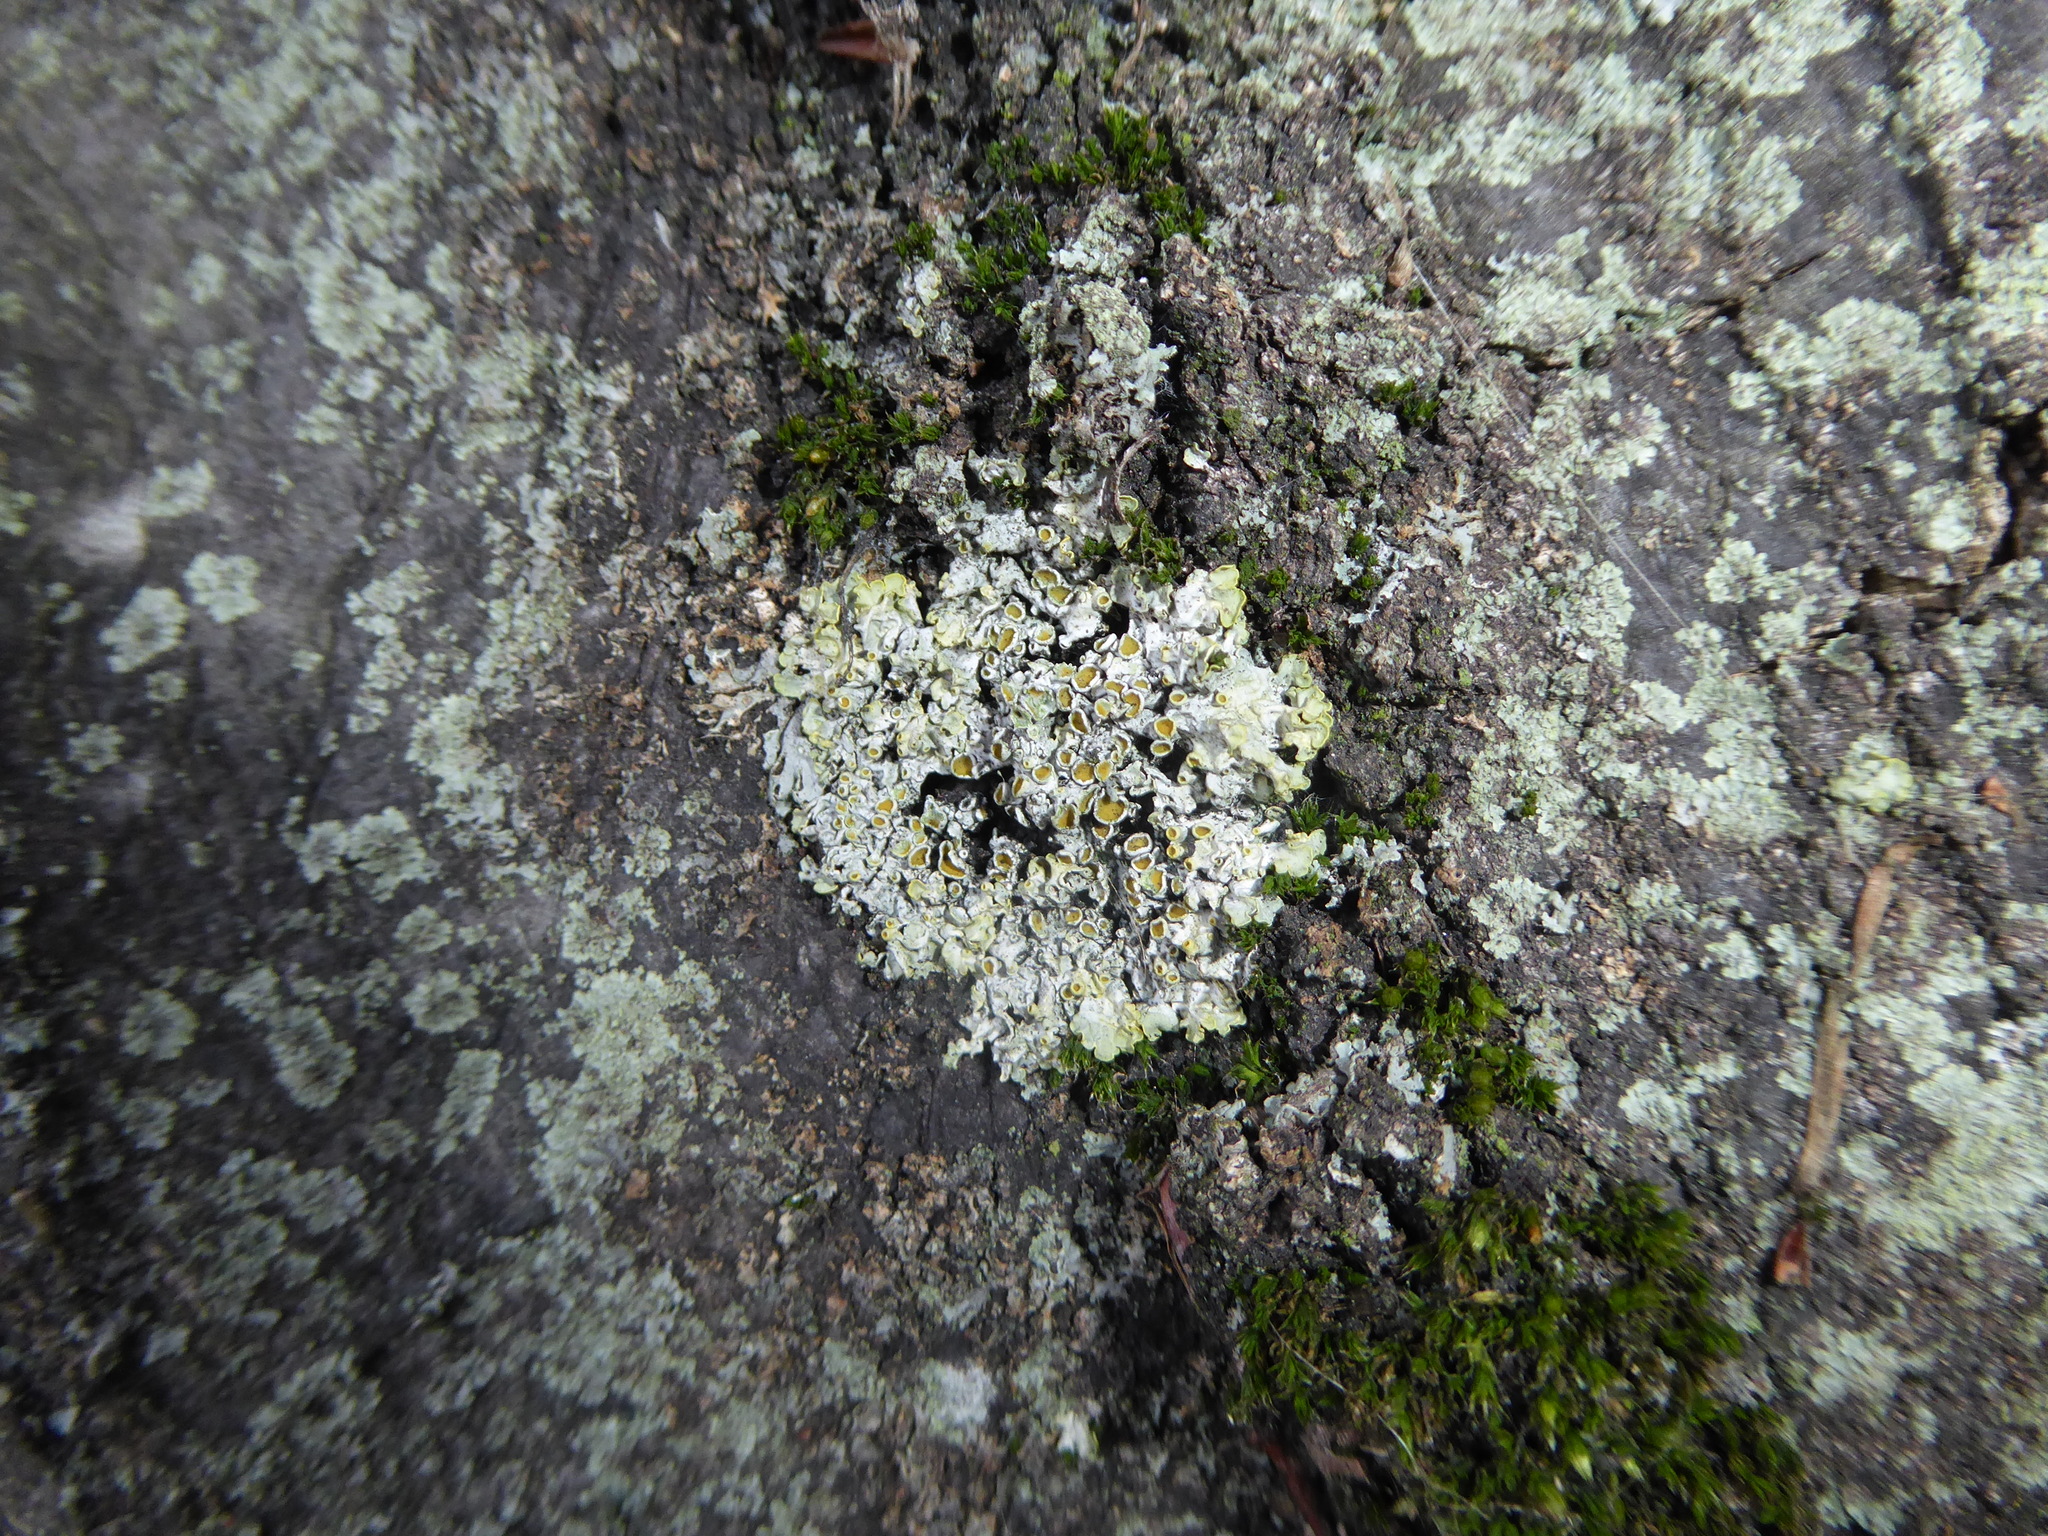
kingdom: Fungi
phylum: Ascomycota
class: Lecanoromycetes
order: Teloschistales
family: Teloschistaceae
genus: Xanthoria
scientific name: Xanthoria parietina
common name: Common orange lichen
